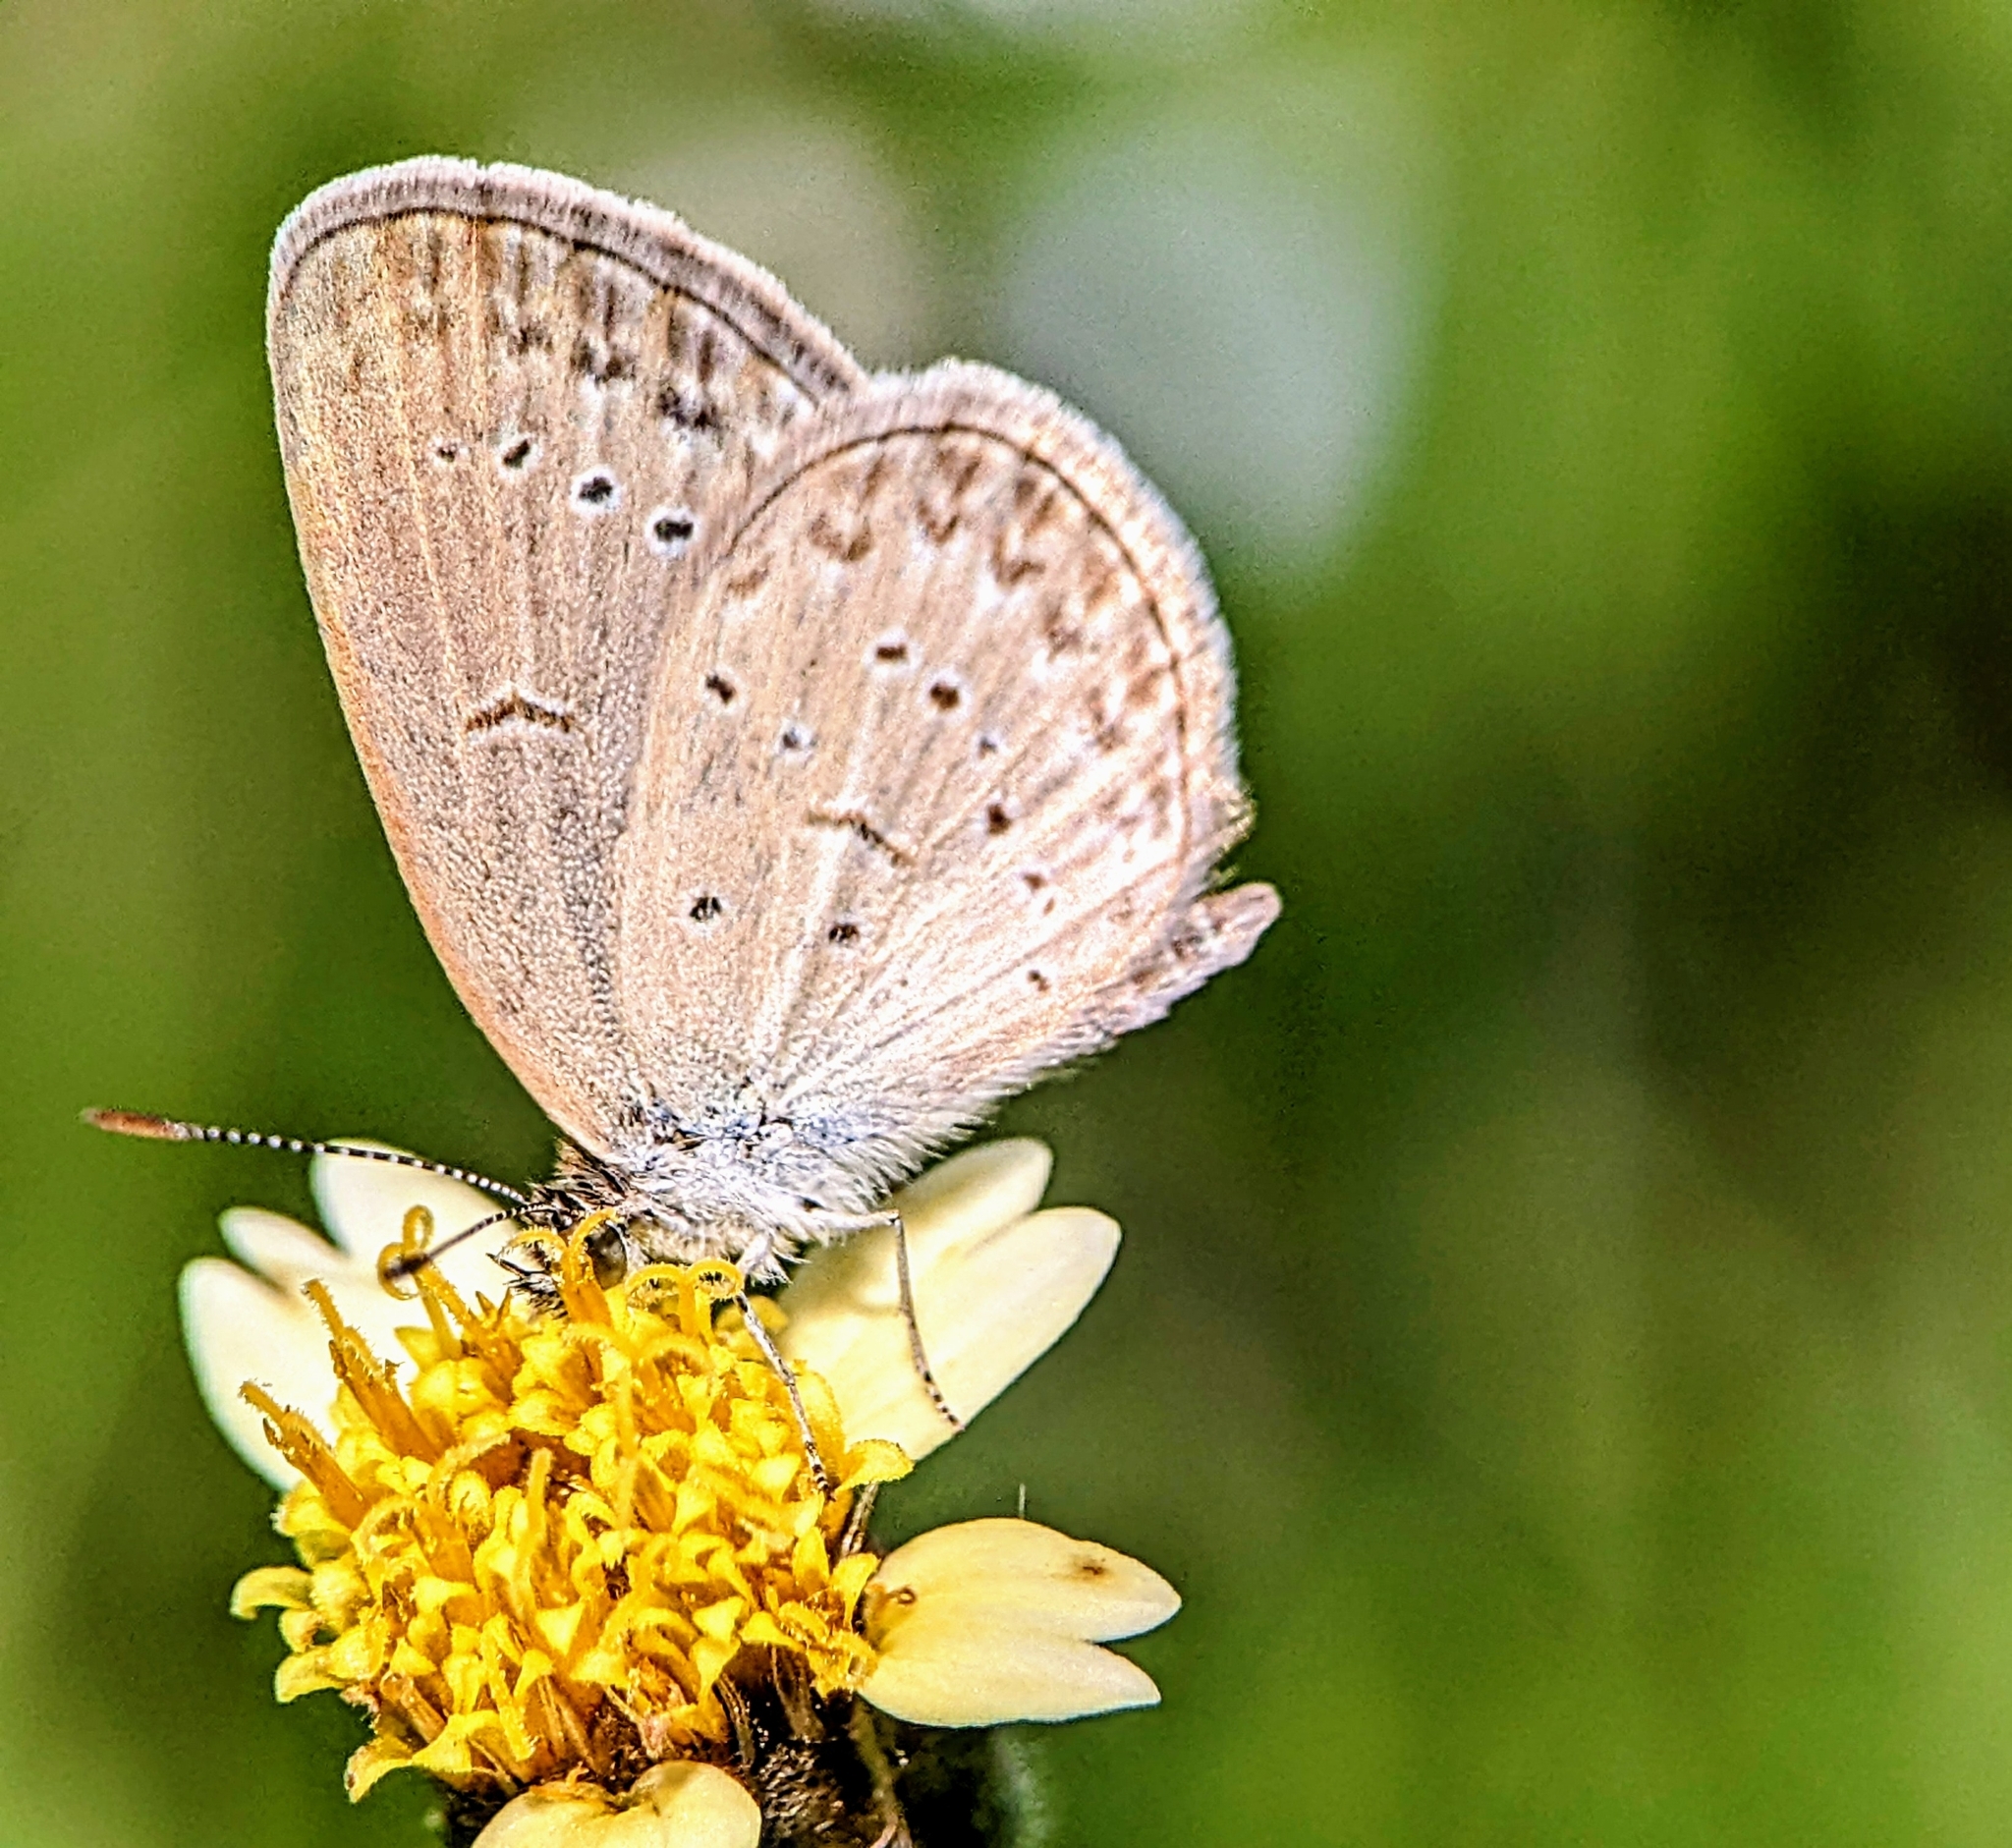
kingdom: Animalia
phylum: Arthropoda
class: Insecta
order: Lepidoptera
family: Lycaenidae
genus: Zizina
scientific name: Zizina otis
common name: Lesser grass blue
